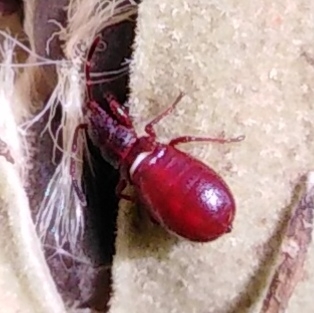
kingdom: Animalia
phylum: Arthropoda
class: Insecta
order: Hemiptera
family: Oxycarenidae
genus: Oxycarenus
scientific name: Oxycarenus lavaterae
